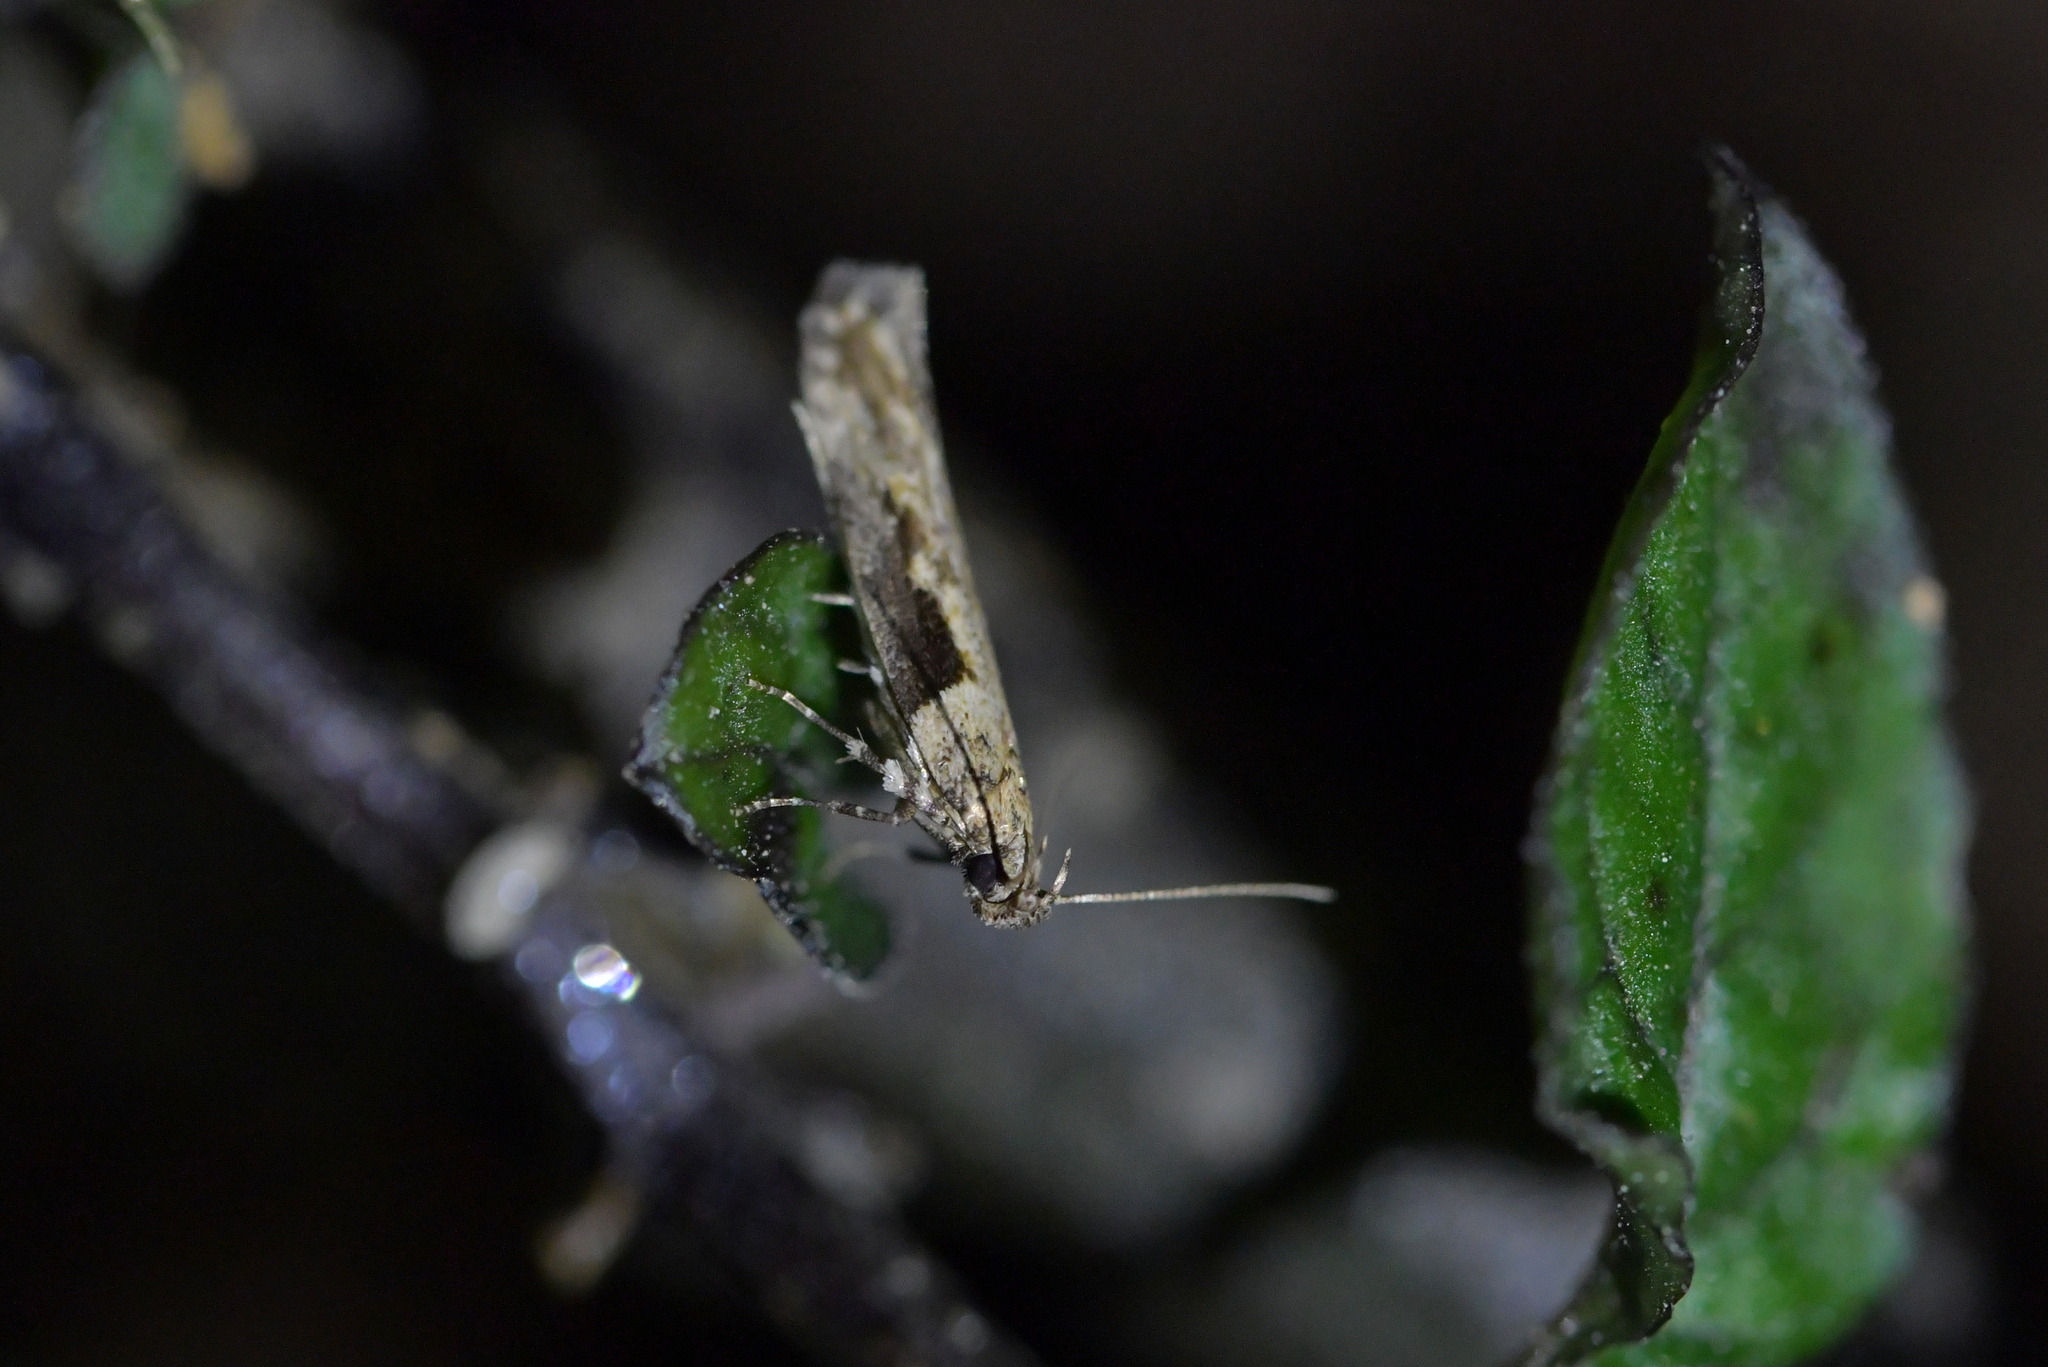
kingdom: Animalia
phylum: Arthropoda
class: Insecta
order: Lepidoptera
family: Gelechiidae
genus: Symmetrischema
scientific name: Symmetrischema tangolias
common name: Moth
